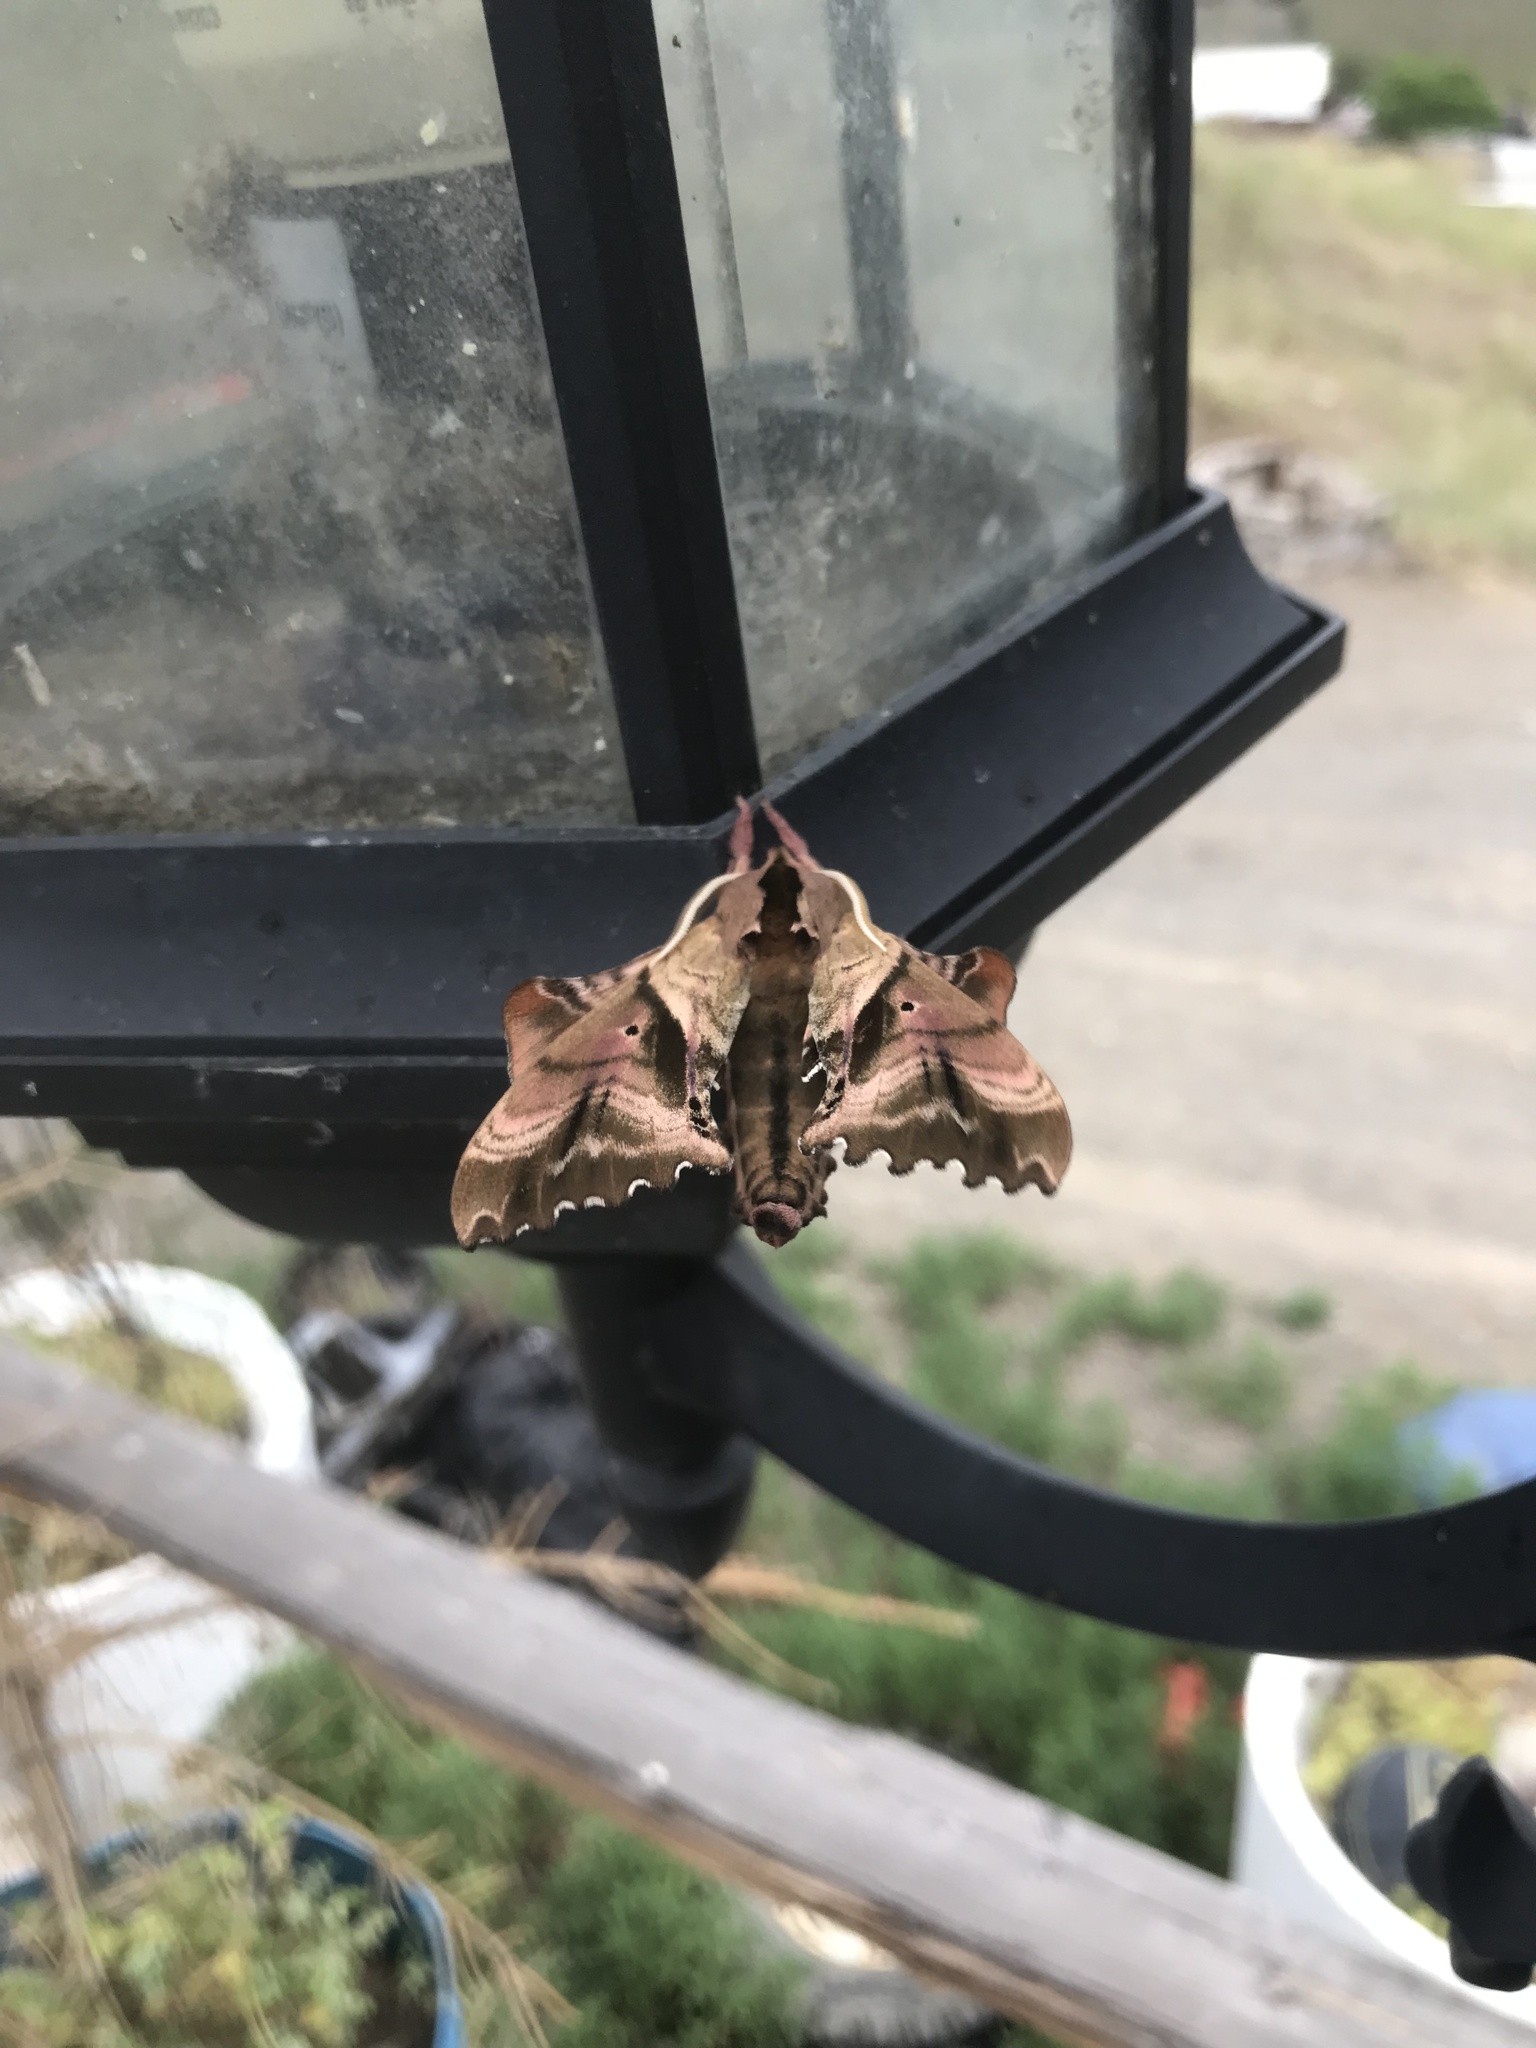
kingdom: Animalia
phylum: Arthropoda
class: Insecta
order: Lepidoptera
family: Sphingidae
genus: Paonias
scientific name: Paonias excaecata
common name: Blind-eyed sphinx
